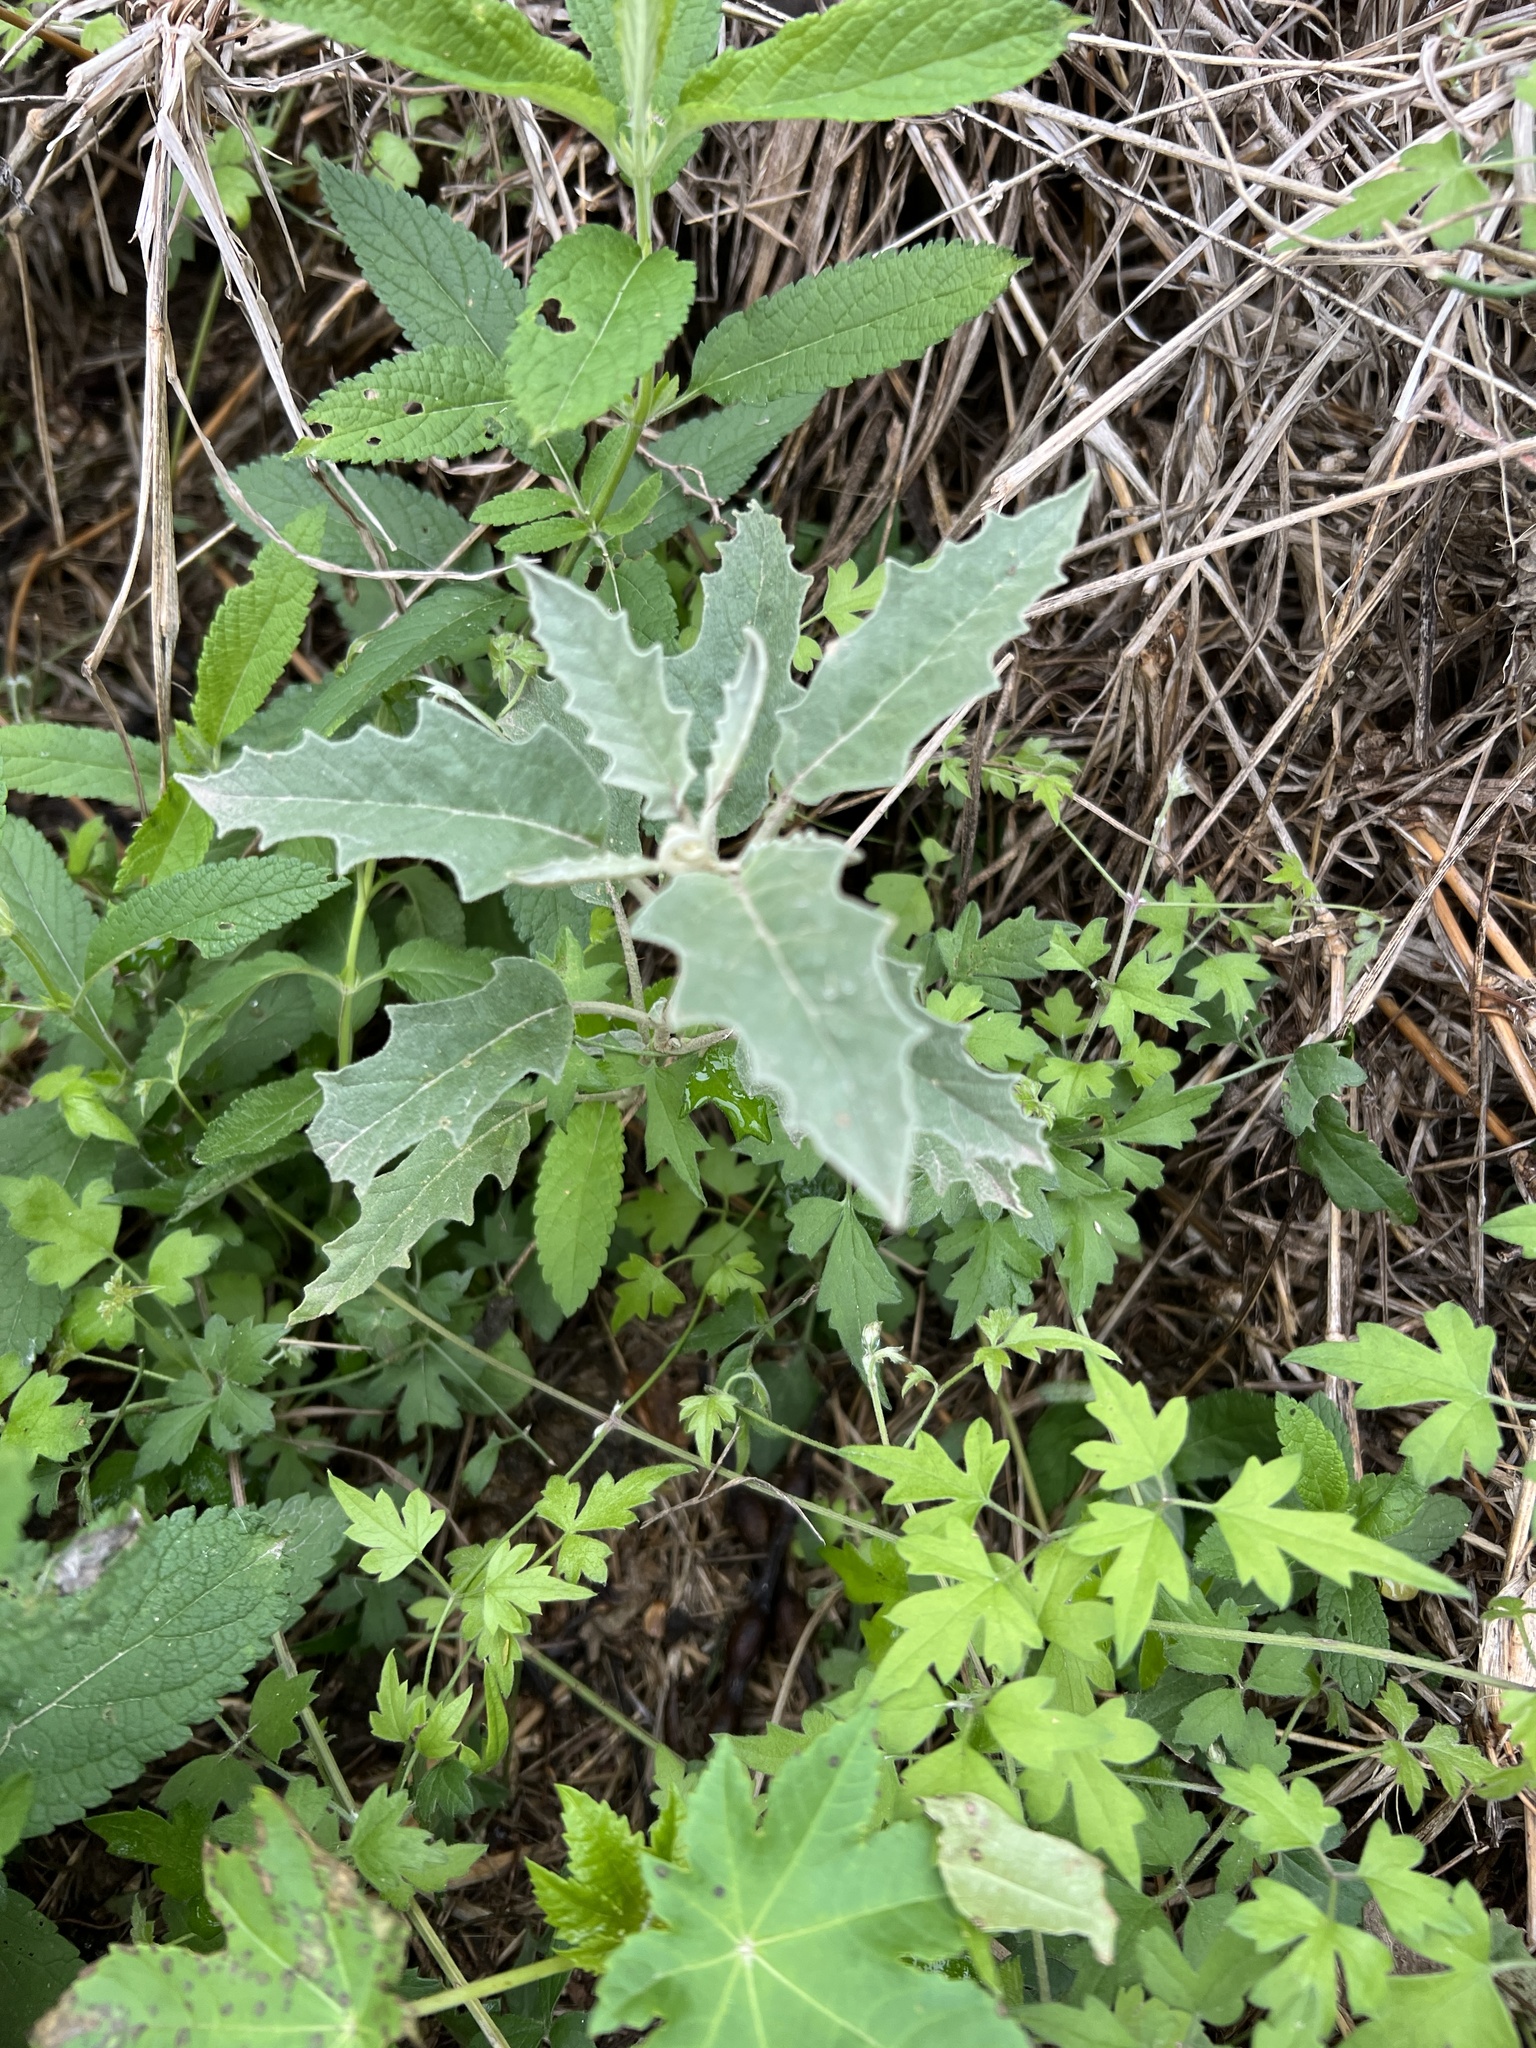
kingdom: Plantae
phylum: Tracheophyta
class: Magnoliopsida
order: Solanales
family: Solanaceae
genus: Solanum
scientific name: Solanum elaeagnifolium
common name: Silverleaf nightshade
